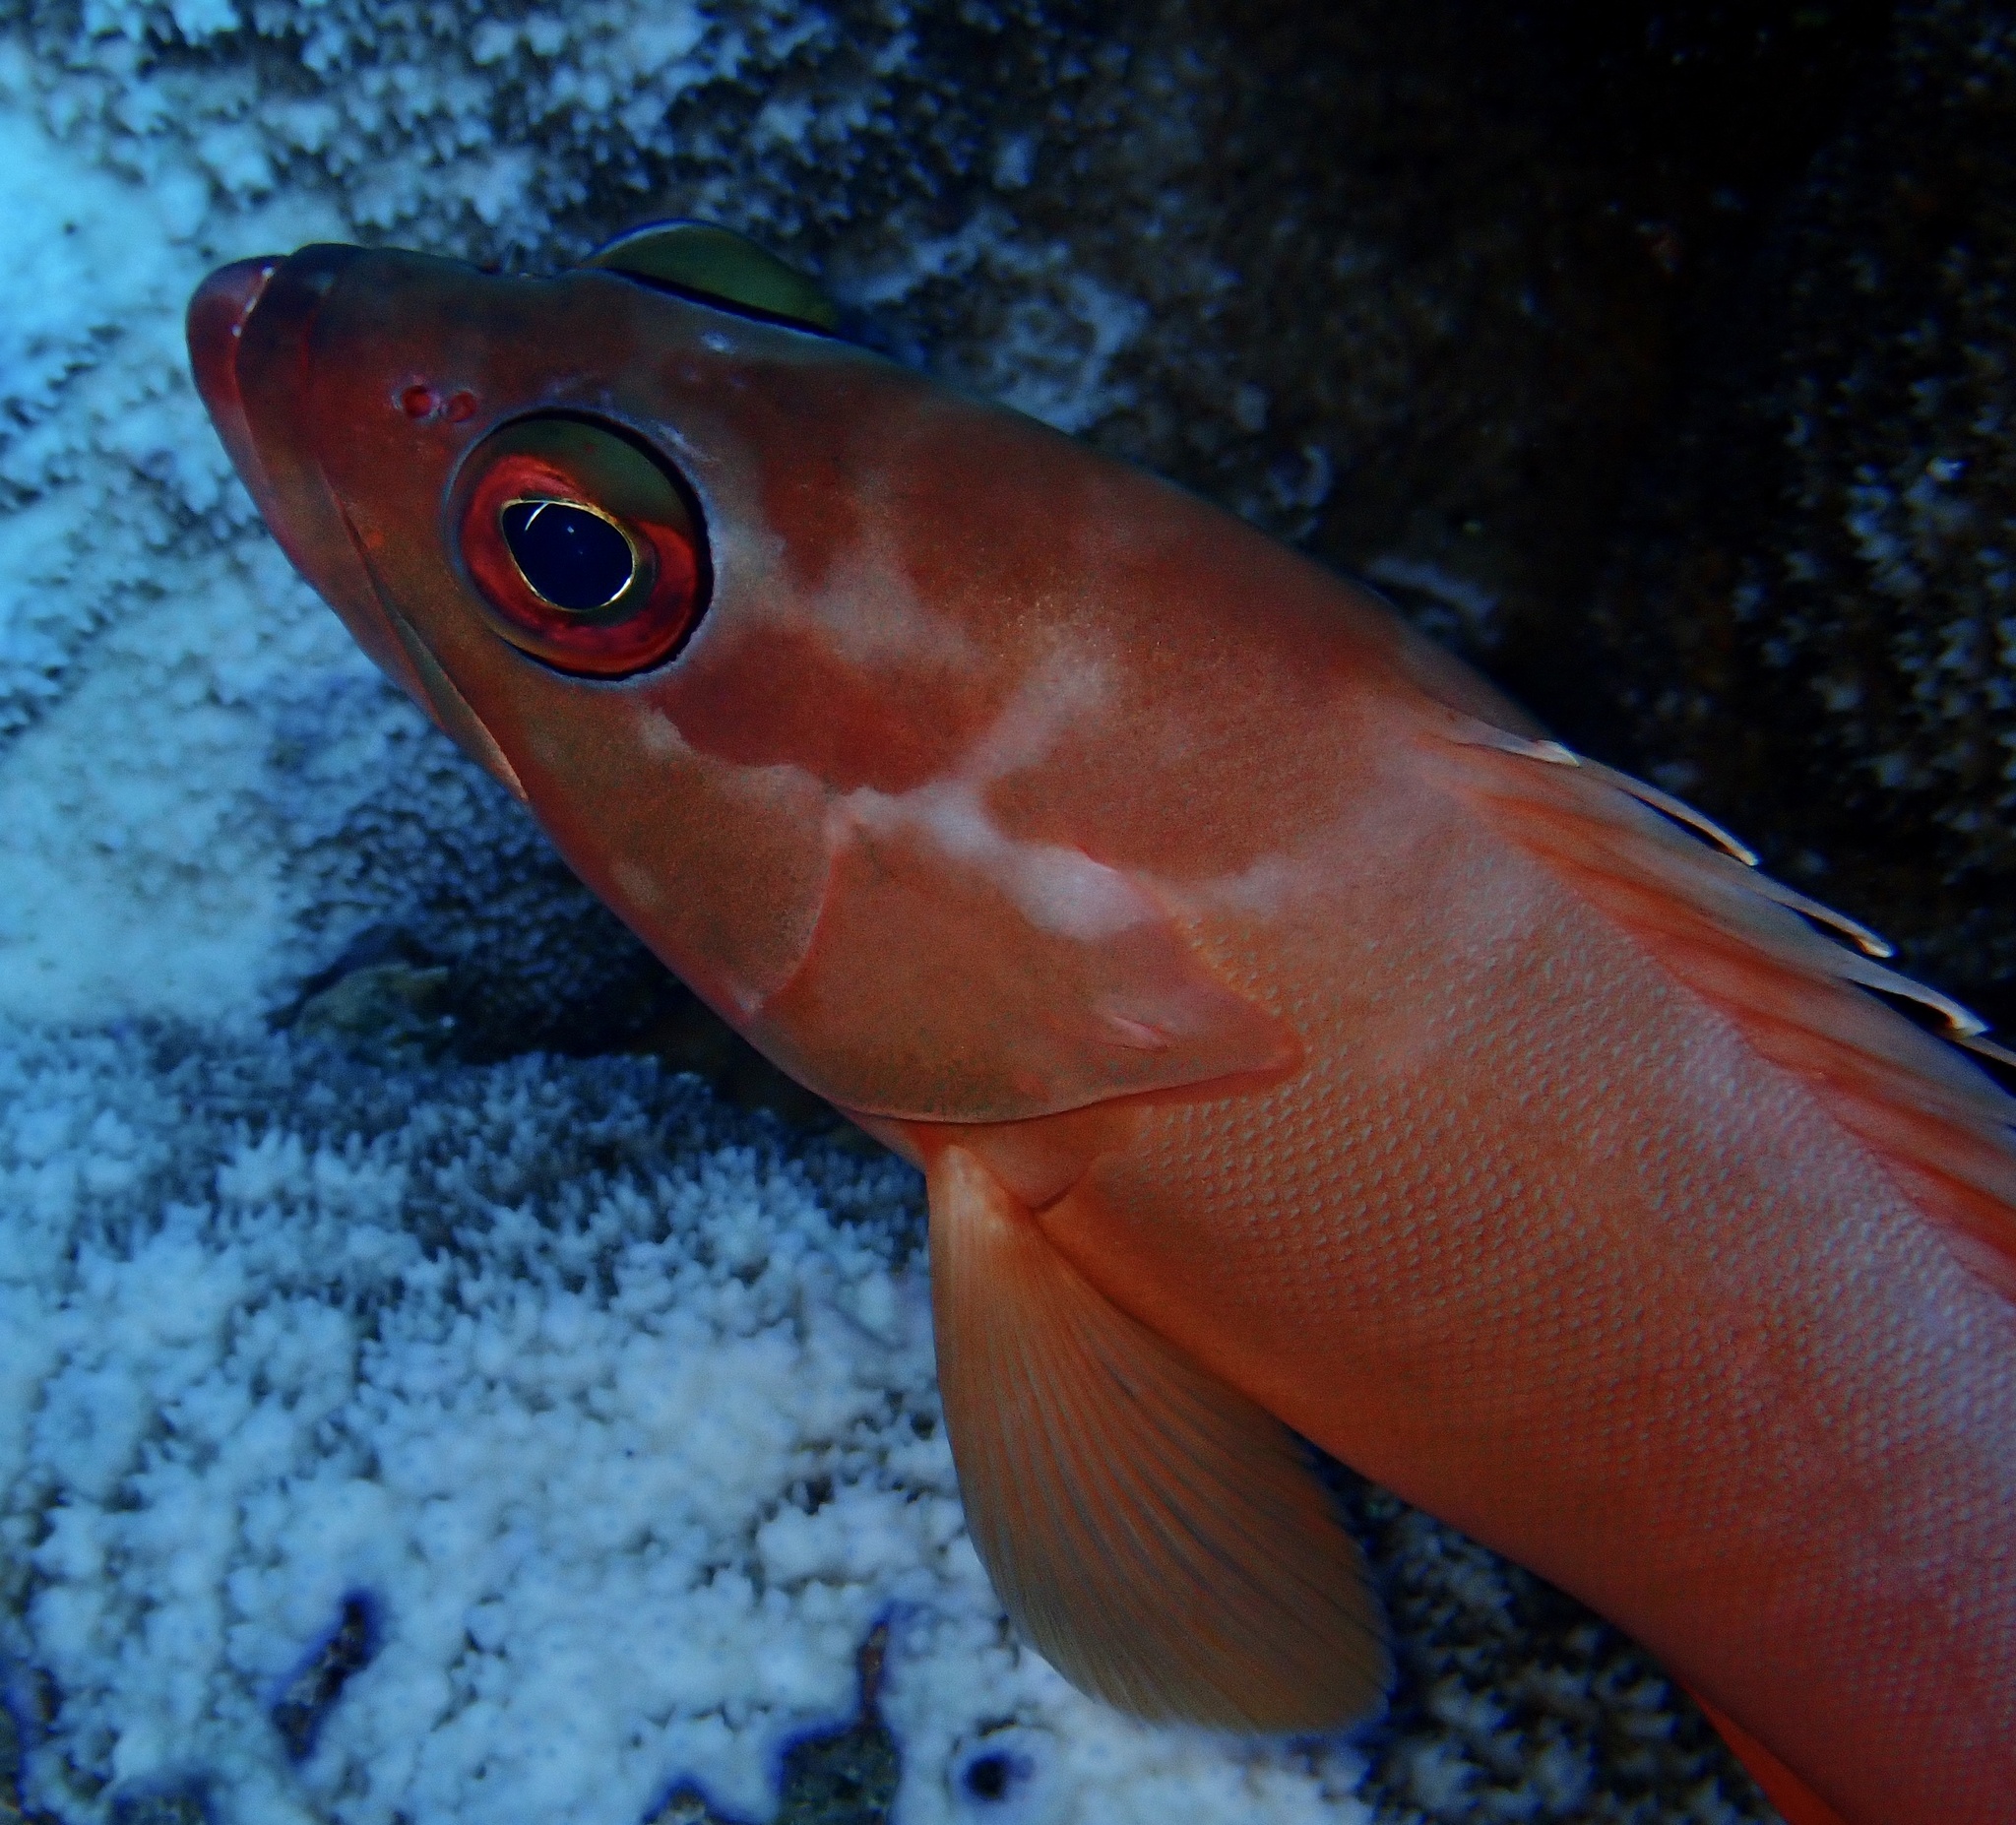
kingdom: Animalia
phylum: Chordata
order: Perciformes
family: Serranidae
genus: Epinephelus
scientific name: Epinephelus fasciatus
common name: Blacktip grouper
